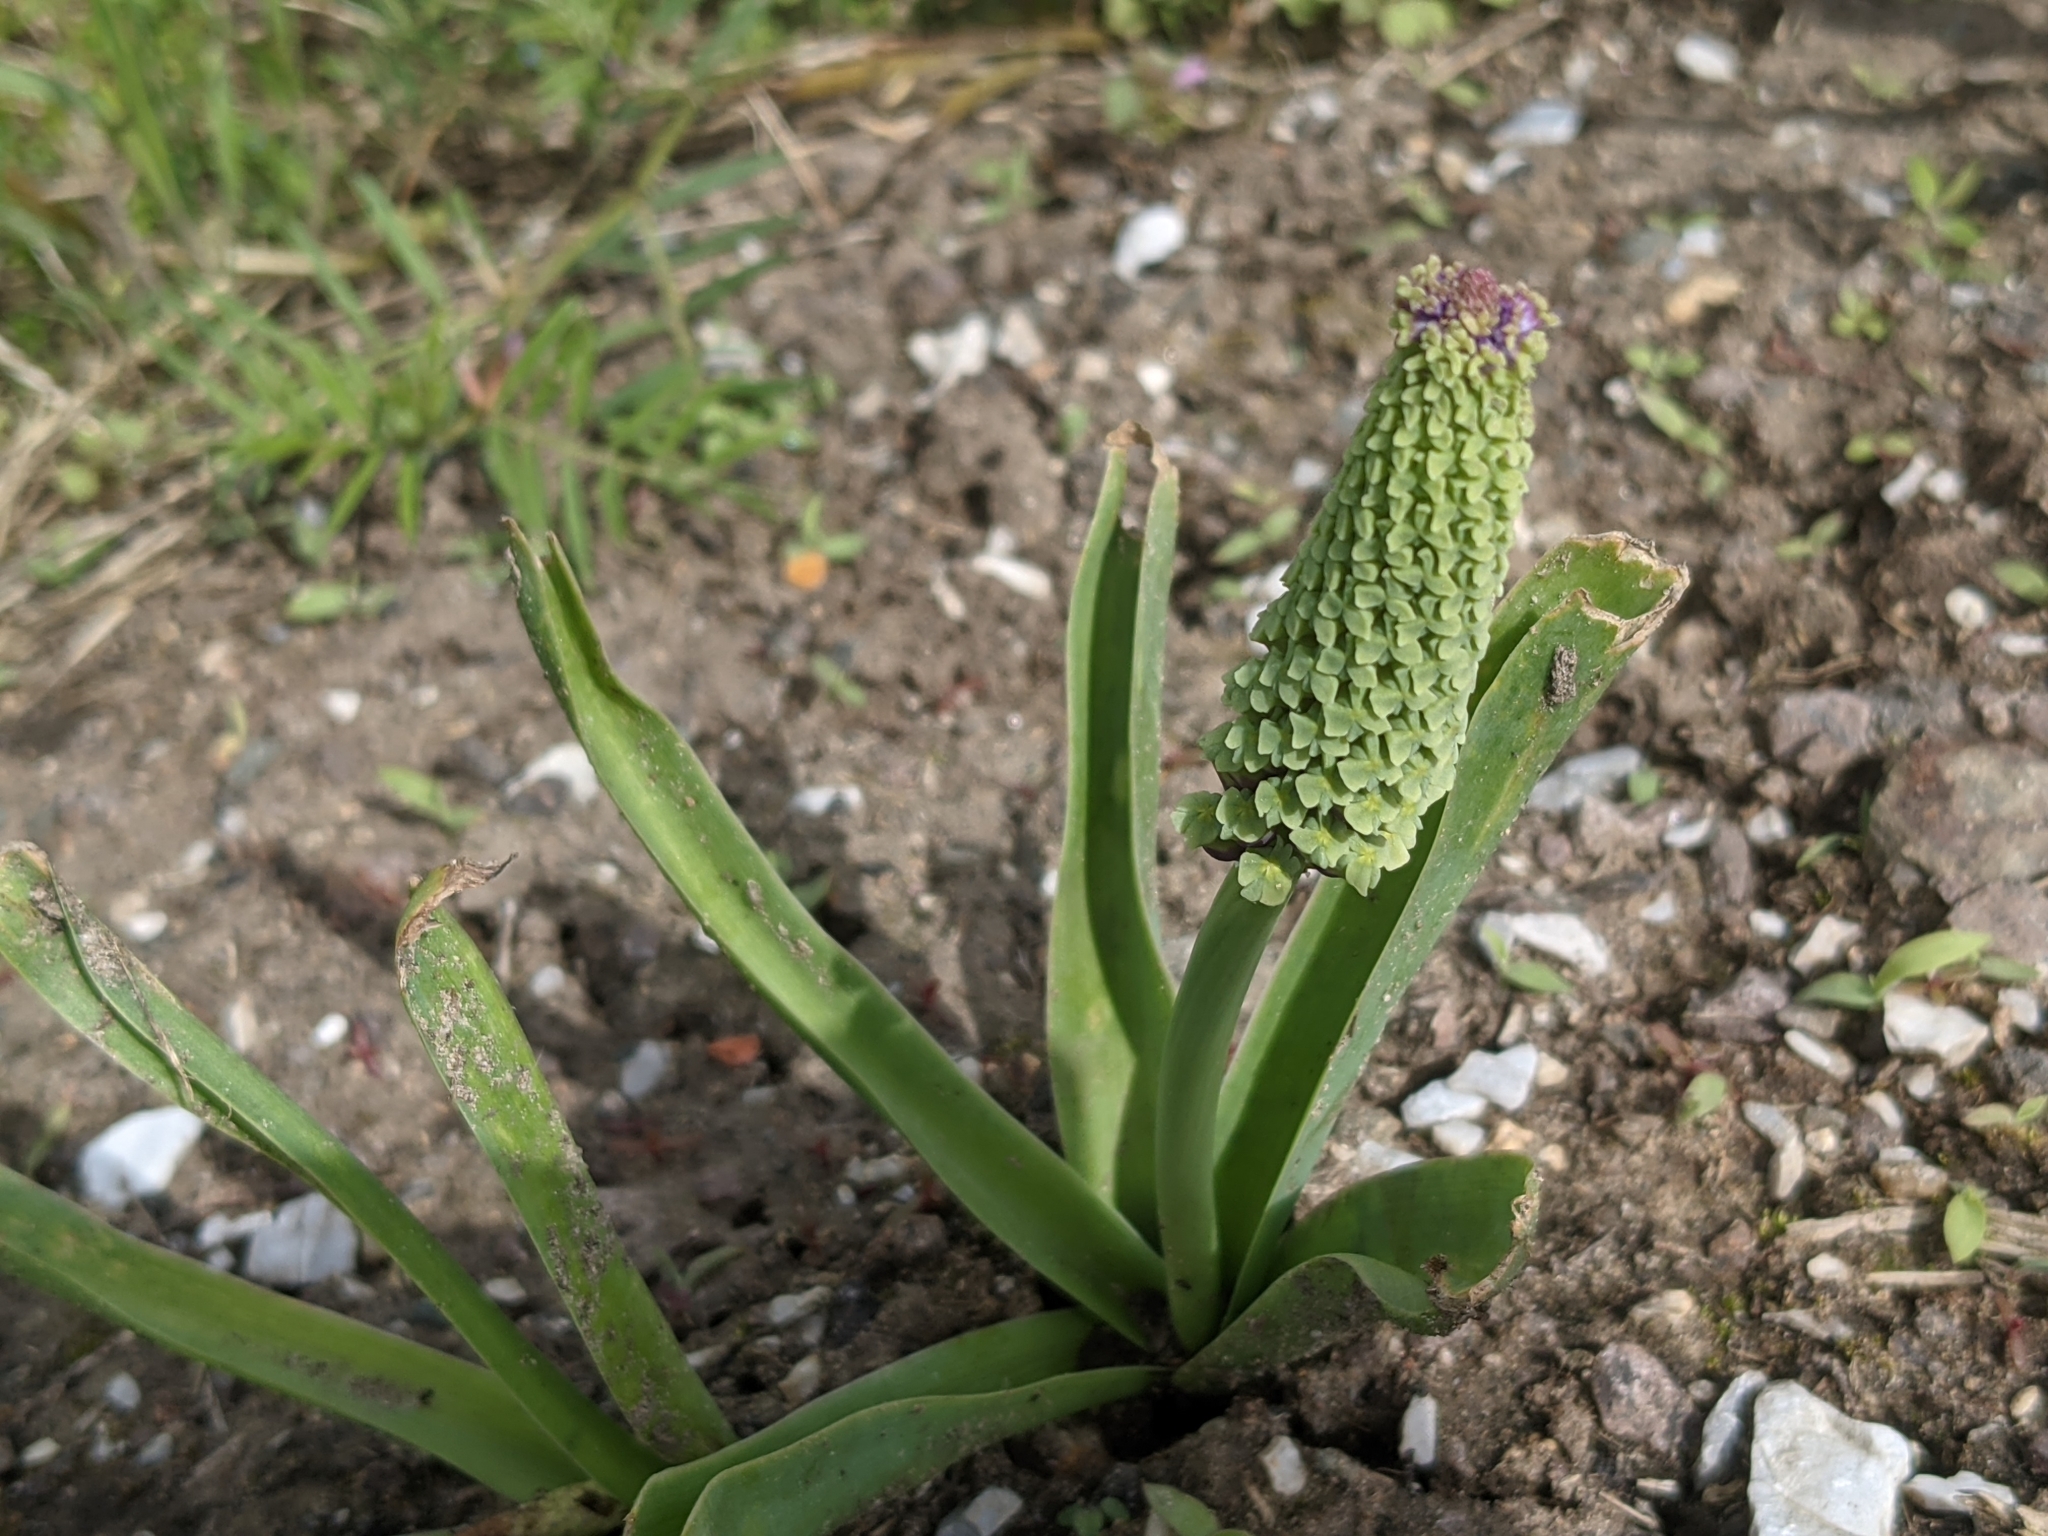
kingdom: Plantae
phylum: Tracheophyta
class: Liliopsida
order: Asparagales
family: Asparagaceae
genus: Muscari
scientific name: Muscari comosum
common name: Tassel hyacinth
